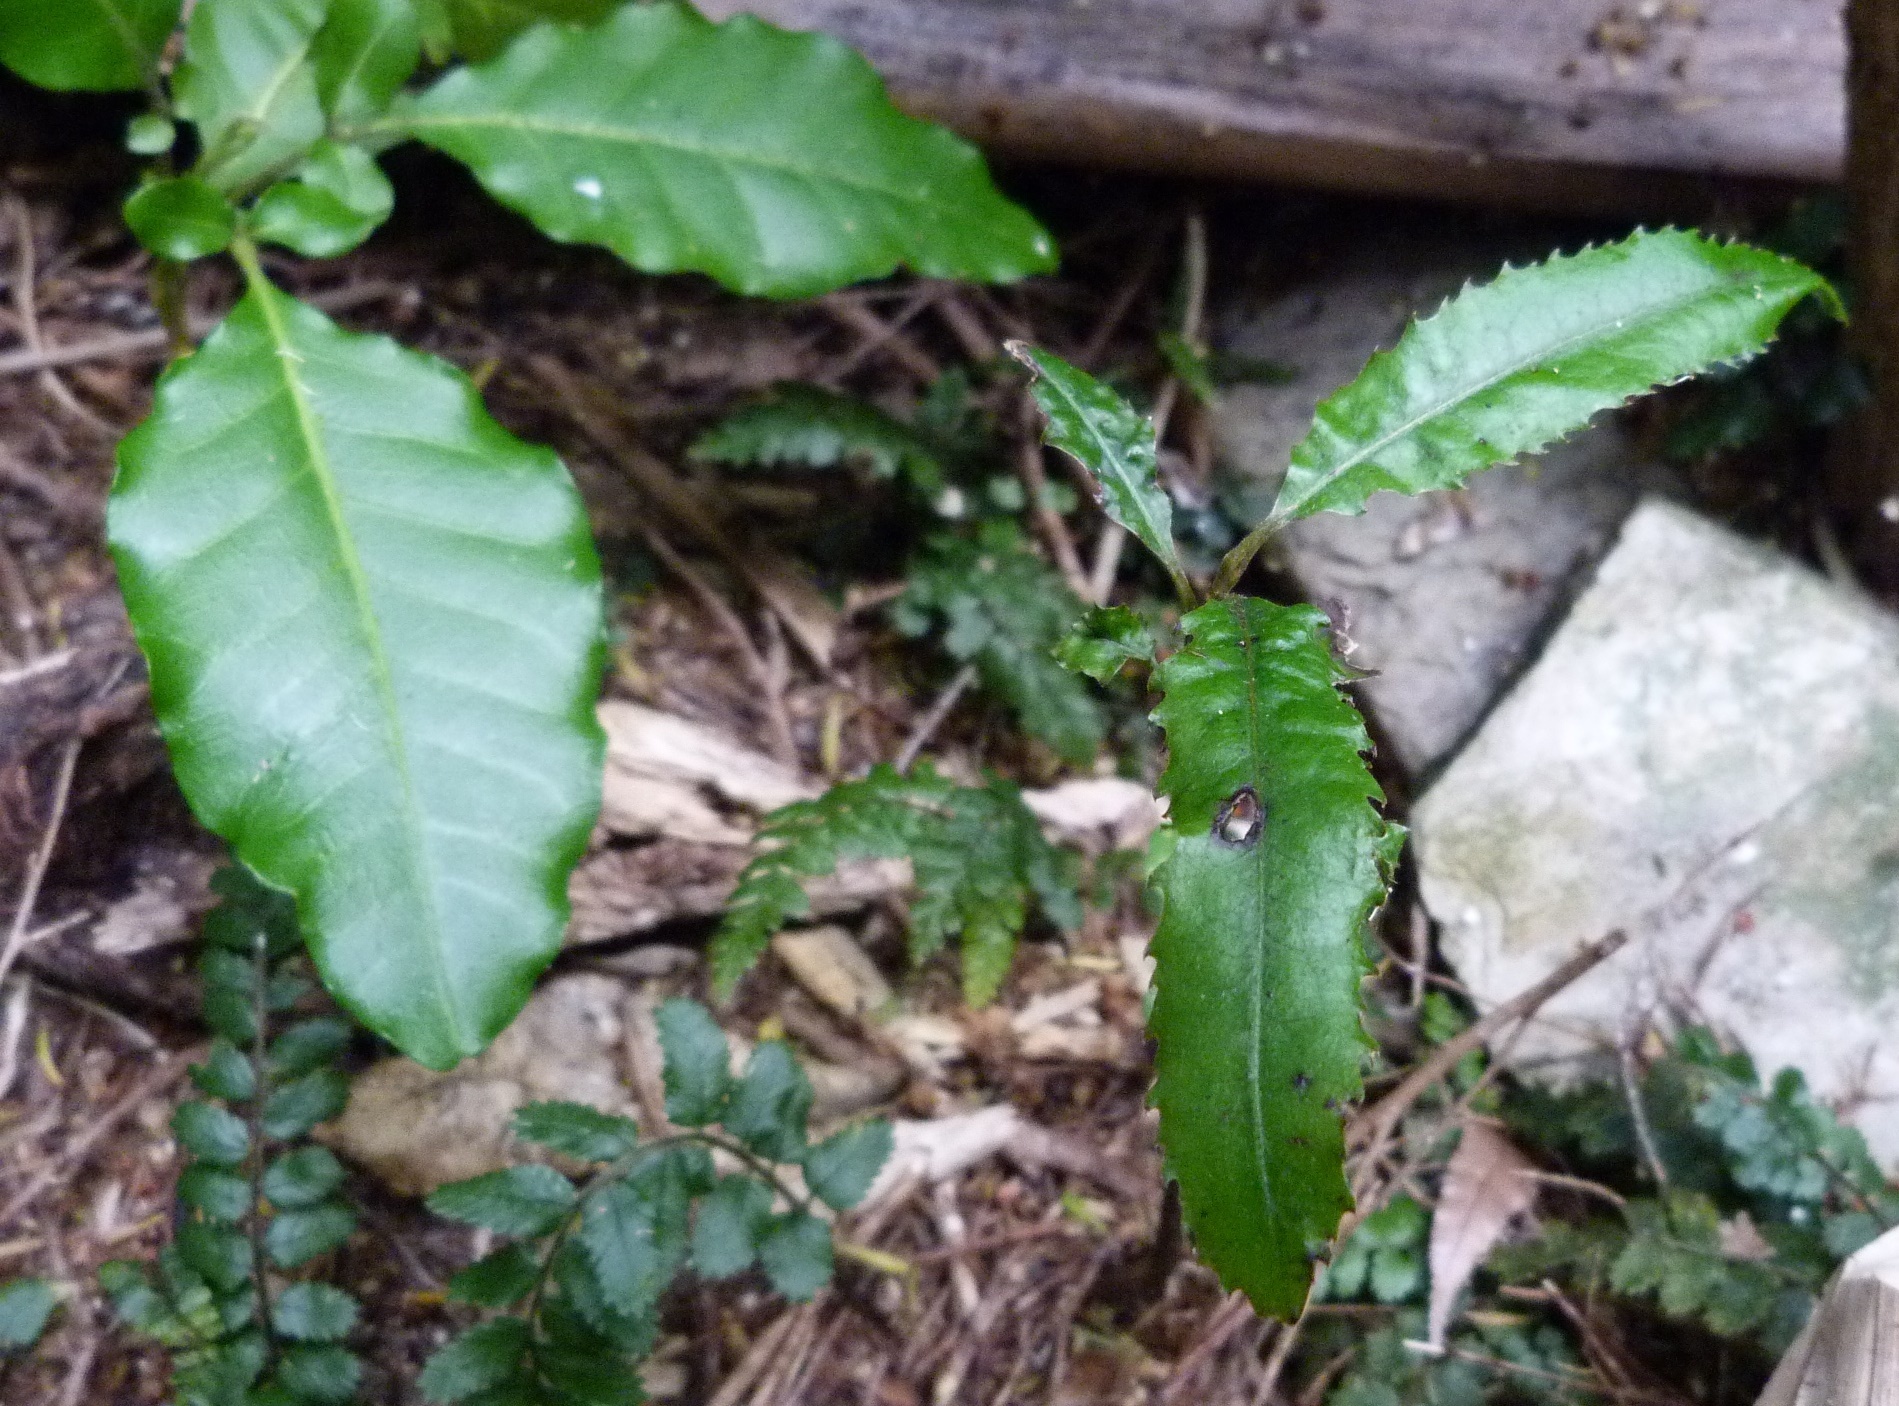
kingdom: Plantae
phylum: Tracheophyta
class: Magnoliopsida
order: Oxalidales
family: Elaeocarpaceae
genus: Elaeocarpus
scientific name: Elaeocarpus dentatus
